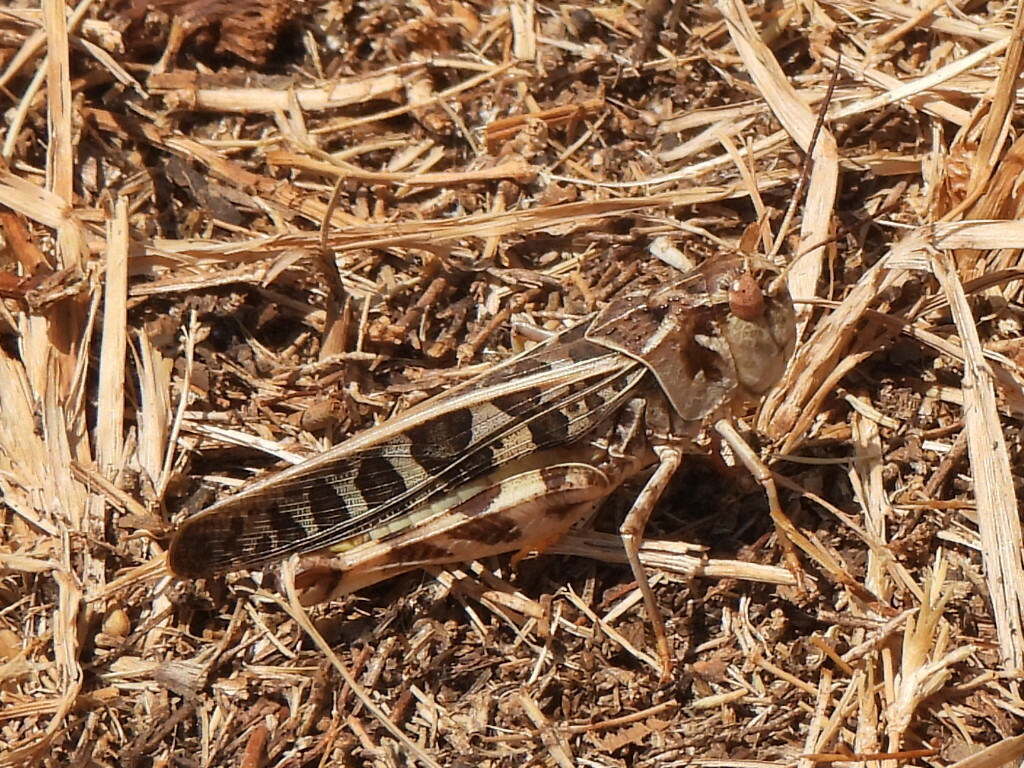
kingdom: Animalia
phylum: Arthropoda
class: Insecta
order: Orthoptera
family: Acrididae
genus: Hippiscus
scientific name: Hippiscus ocelote
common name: Wrinkled grasshopper
